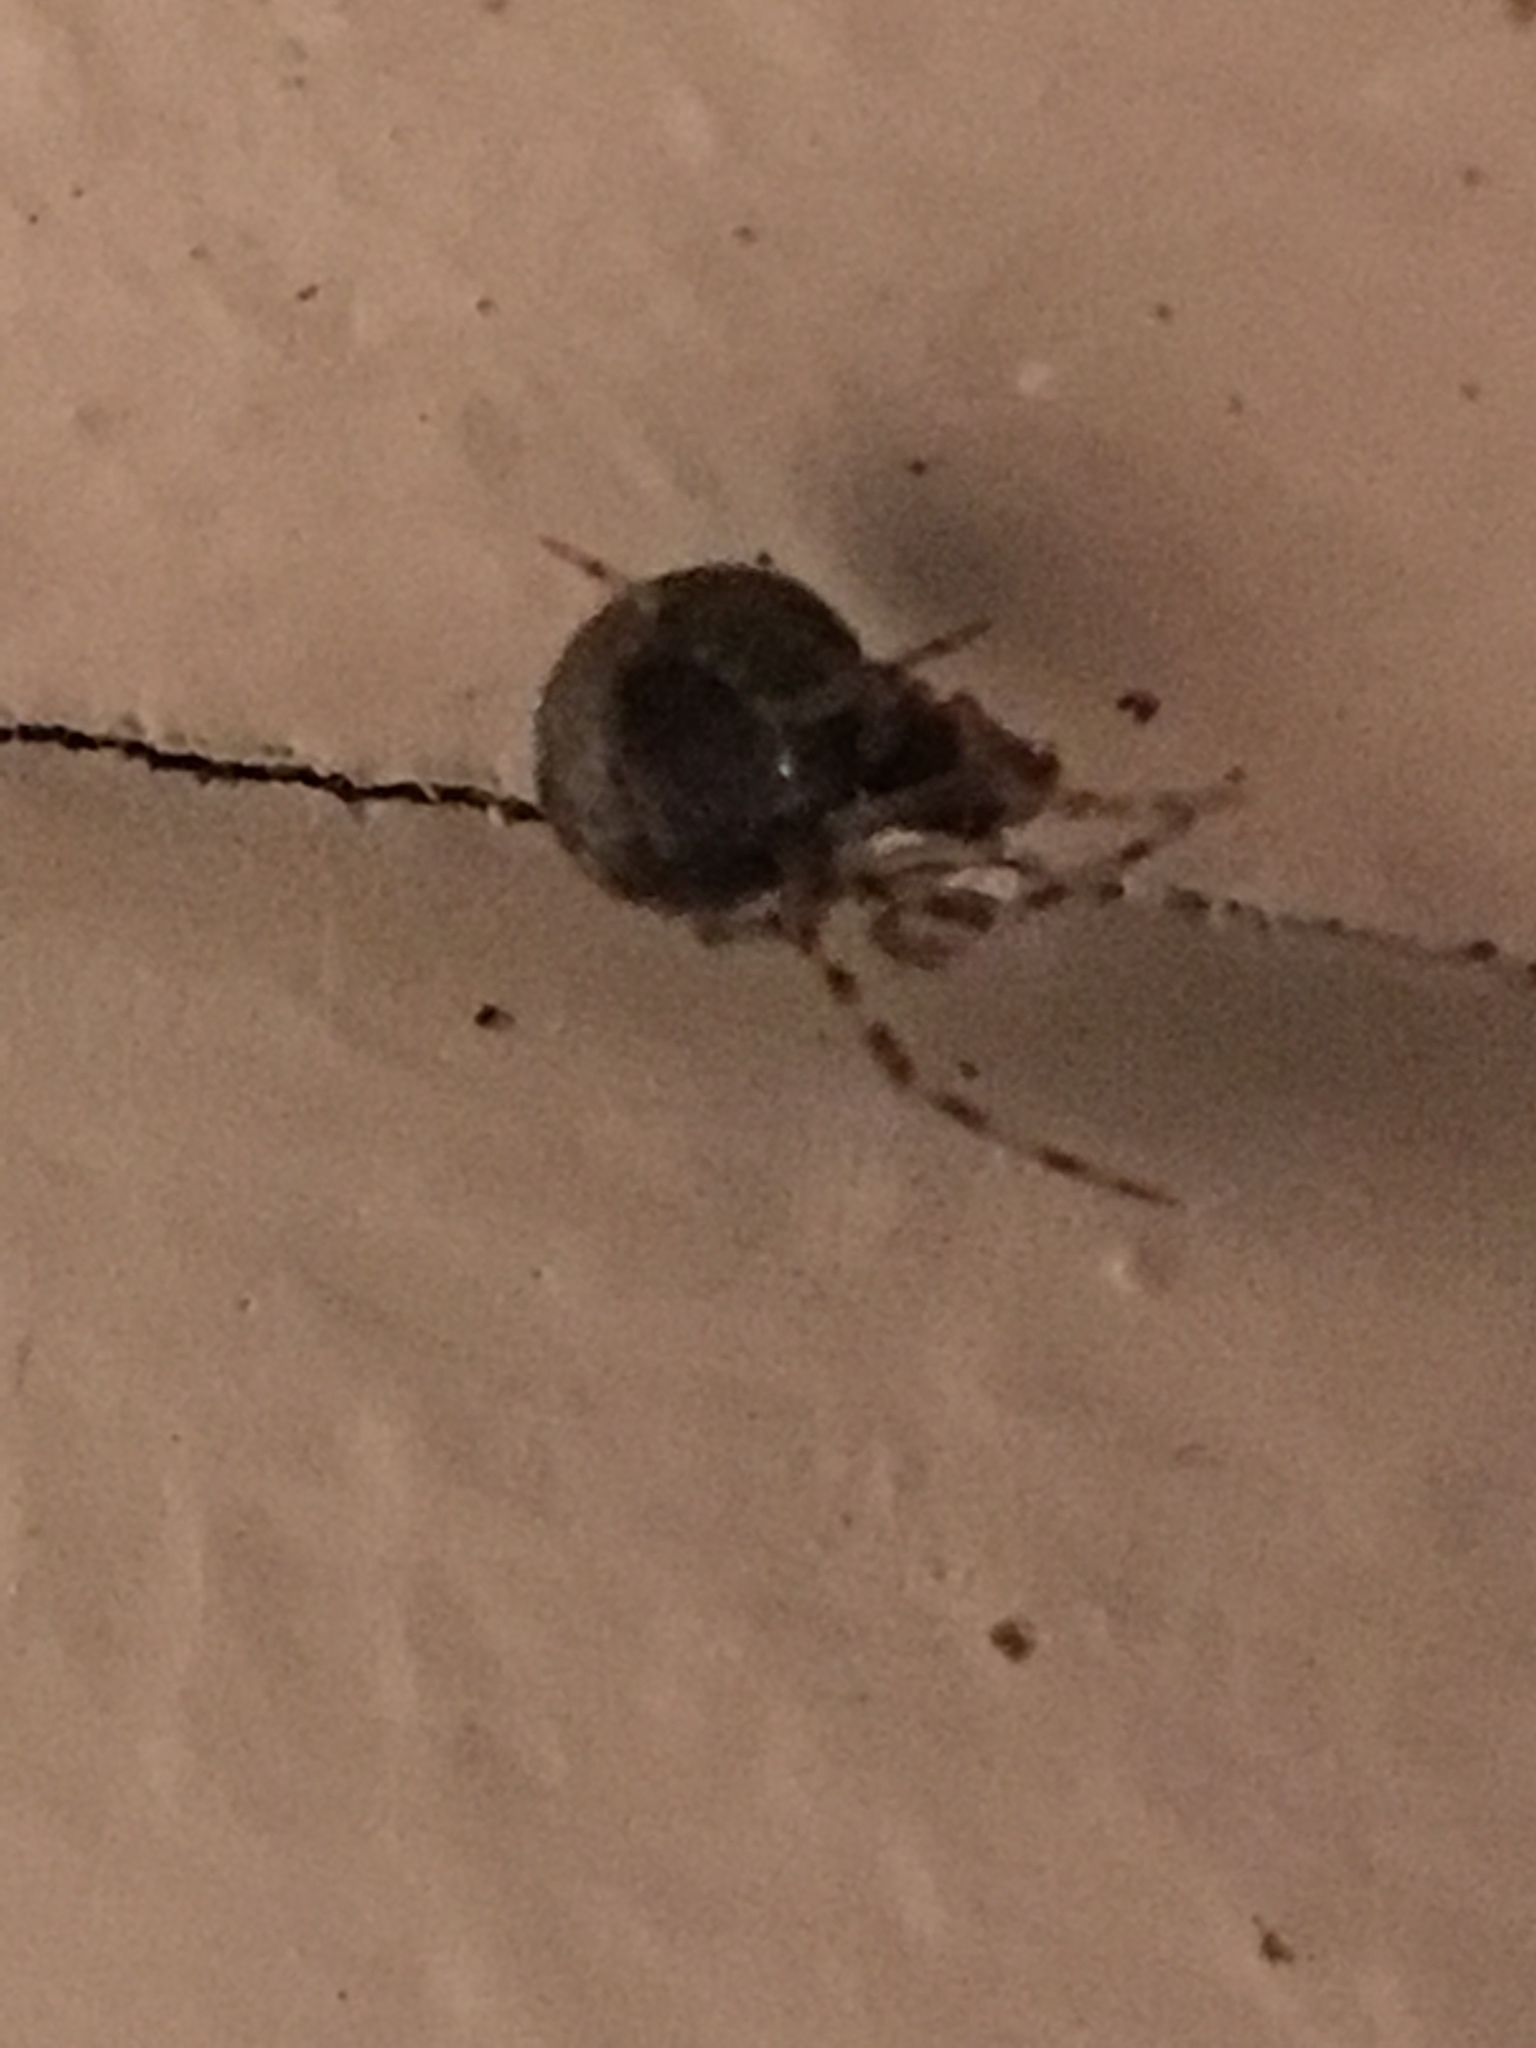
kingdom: Animalia
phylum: Arthropoda
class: Arachnida
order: Araneae
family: Theridiidae
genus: Parasteatoda
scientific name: Parasteatoda tepidariorum
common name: Common house spider
